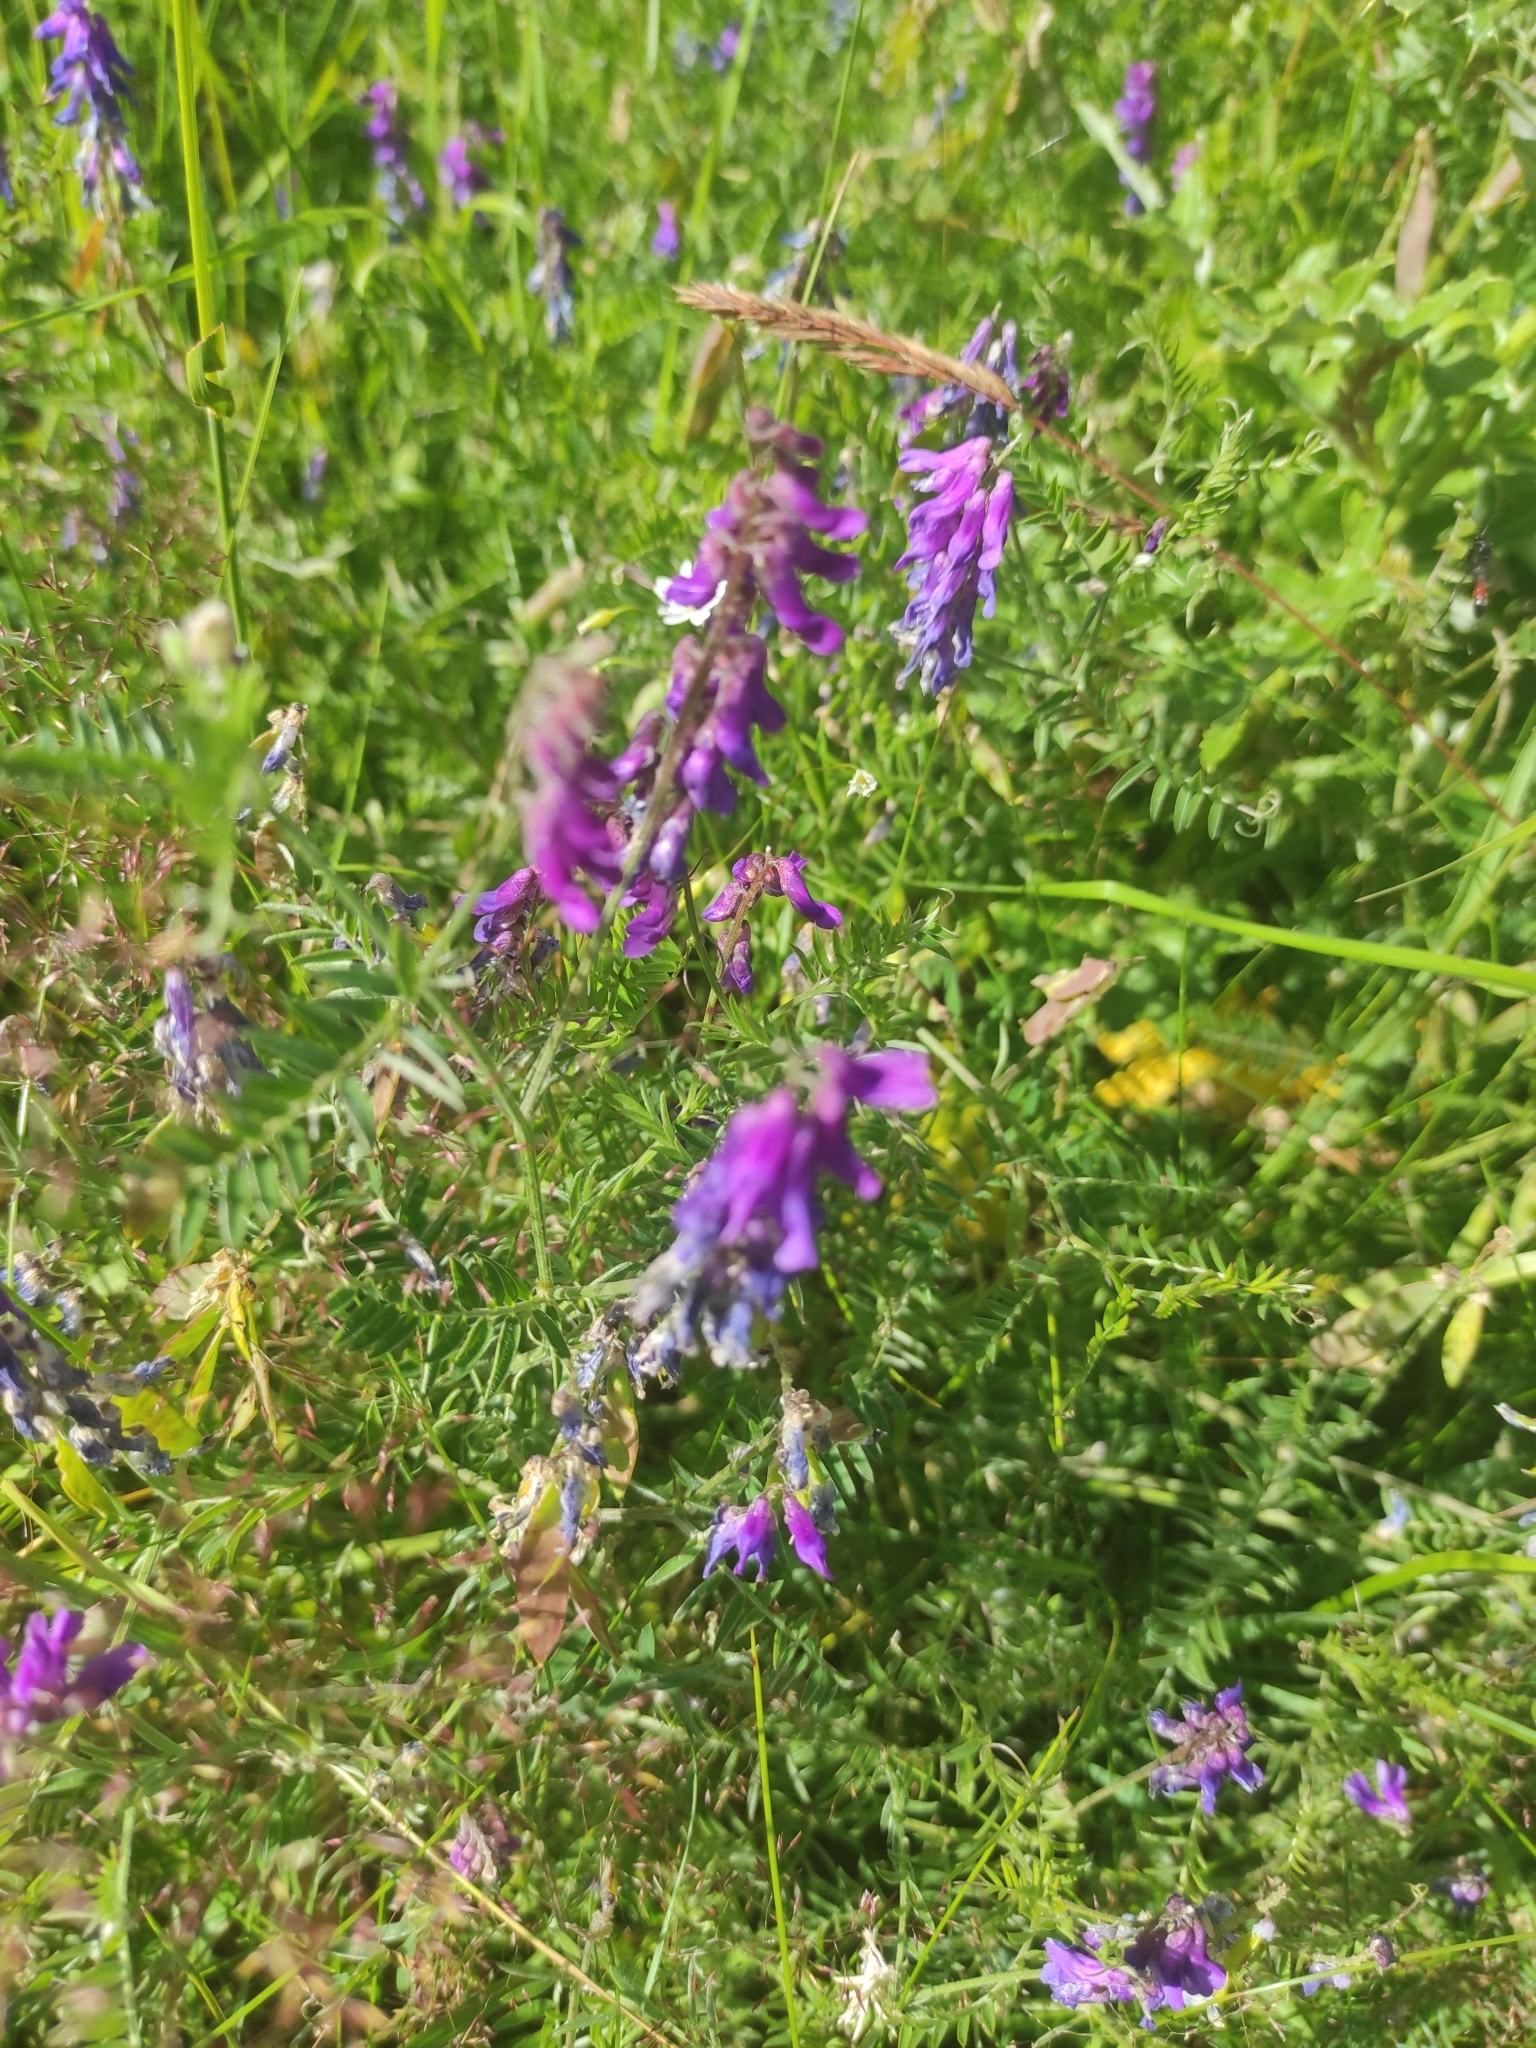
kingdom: Plantae
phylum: Tracheophyta
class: Magnoliopsida
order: Fabales
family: Fabaceae
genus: Vicia
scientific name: Vicia cracca
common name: Bird vetch
